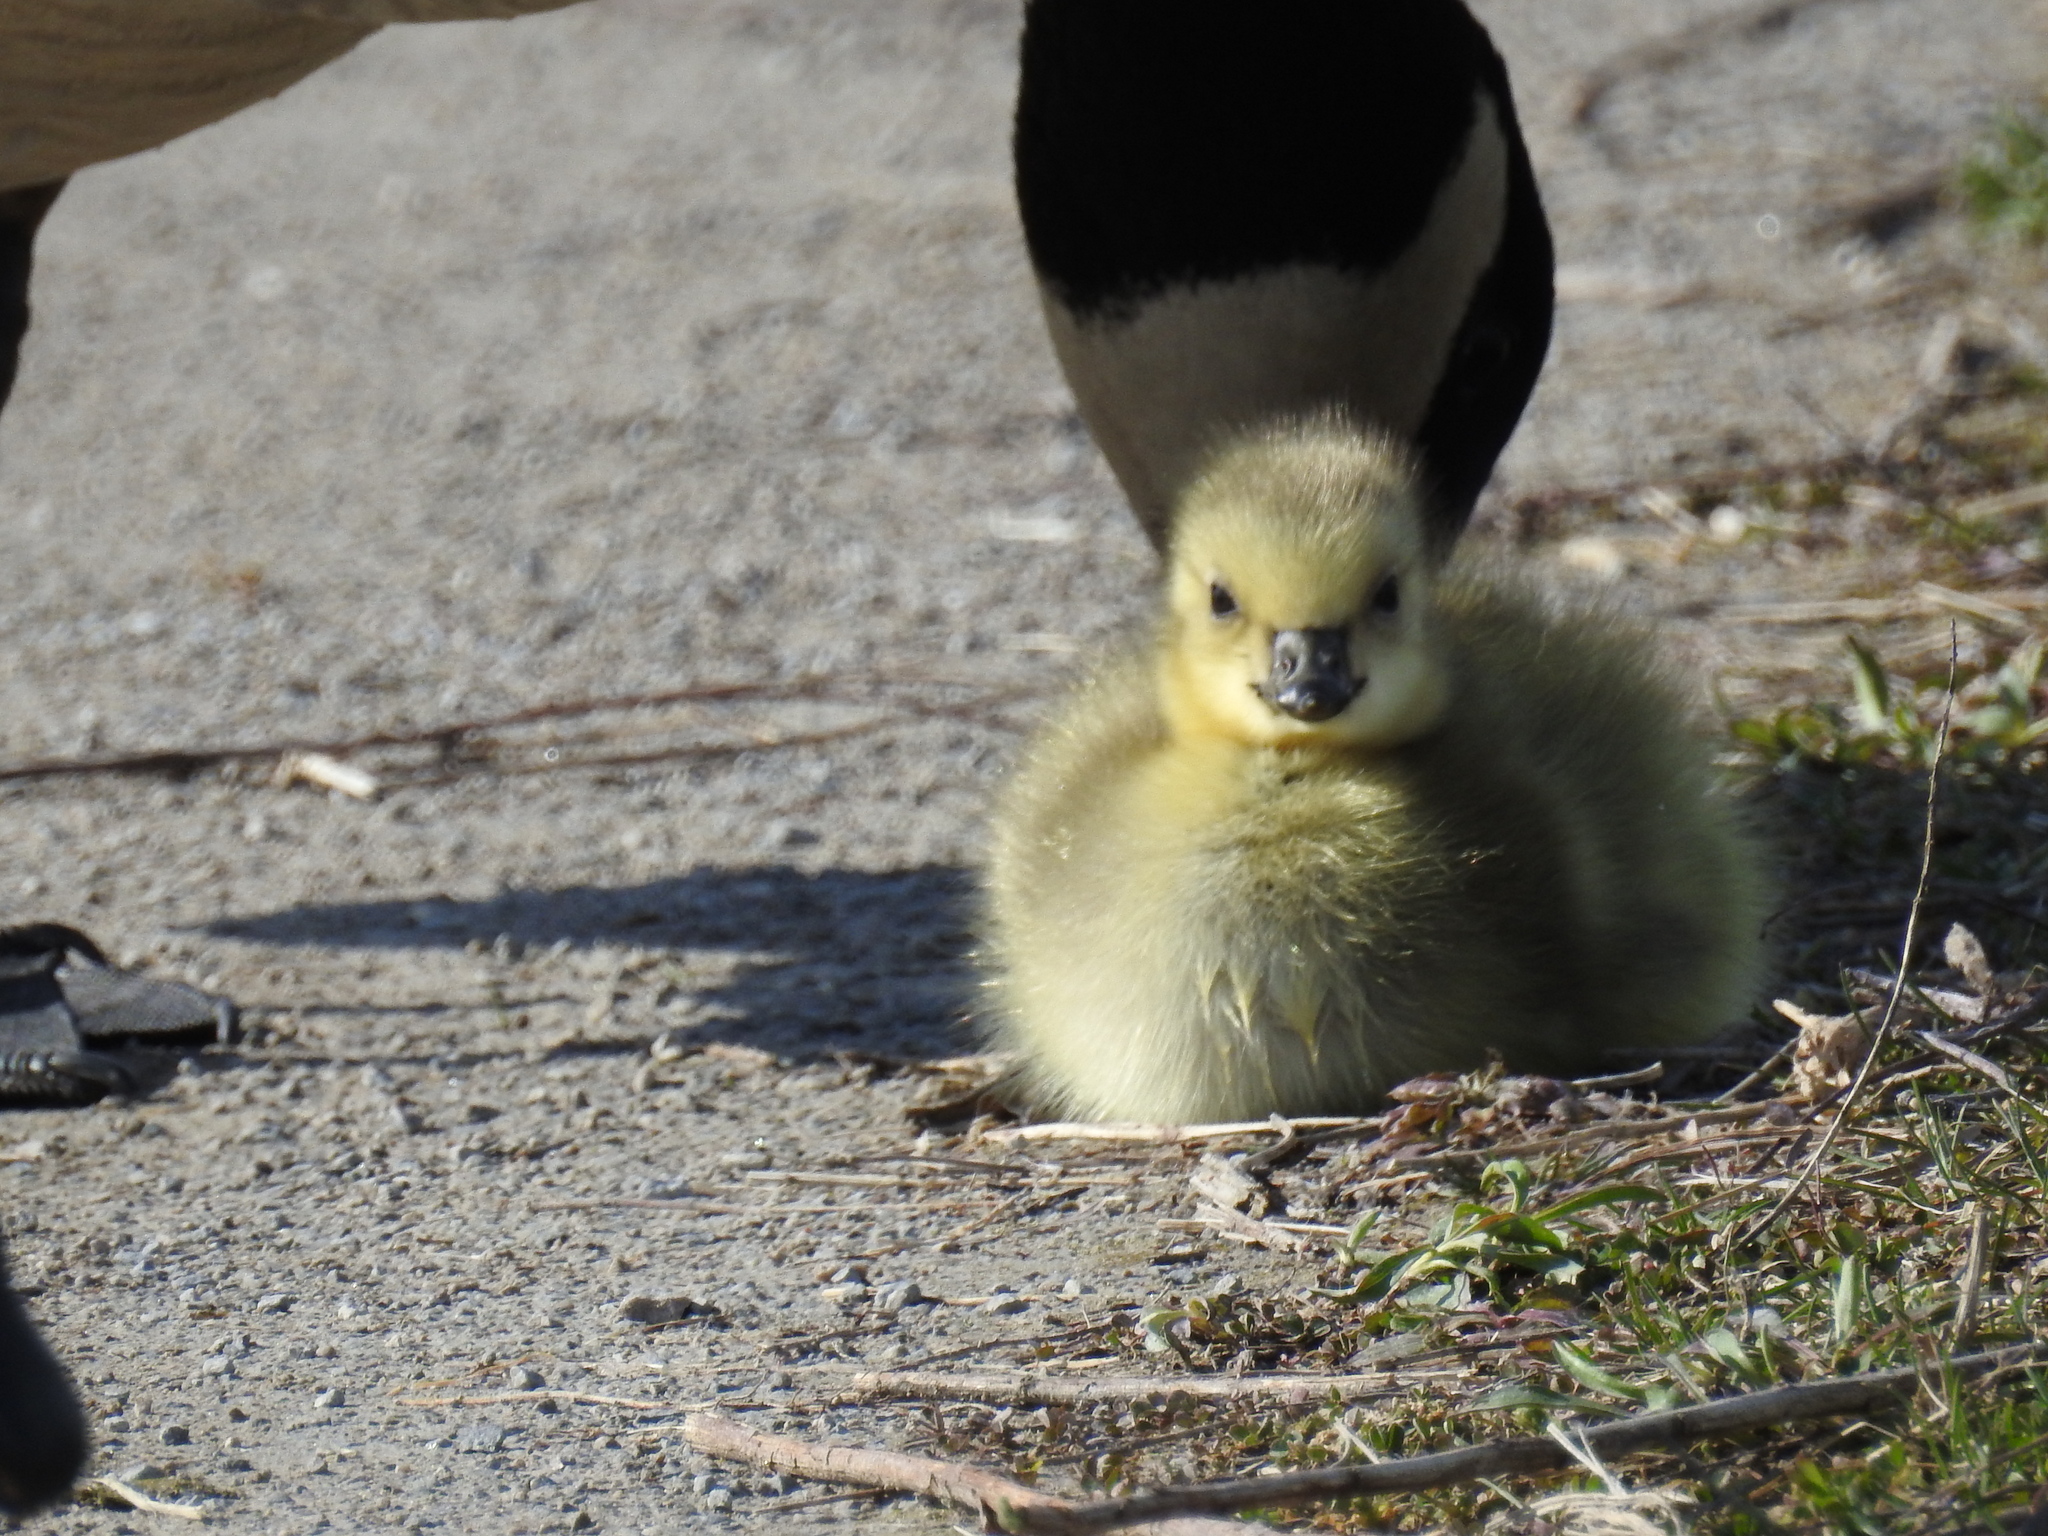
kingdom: Animalia
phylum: Chordata
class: Aves
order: Anseriformes
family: Anatidae
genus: Branta
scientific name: Branta canadensis
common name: Canada goose
